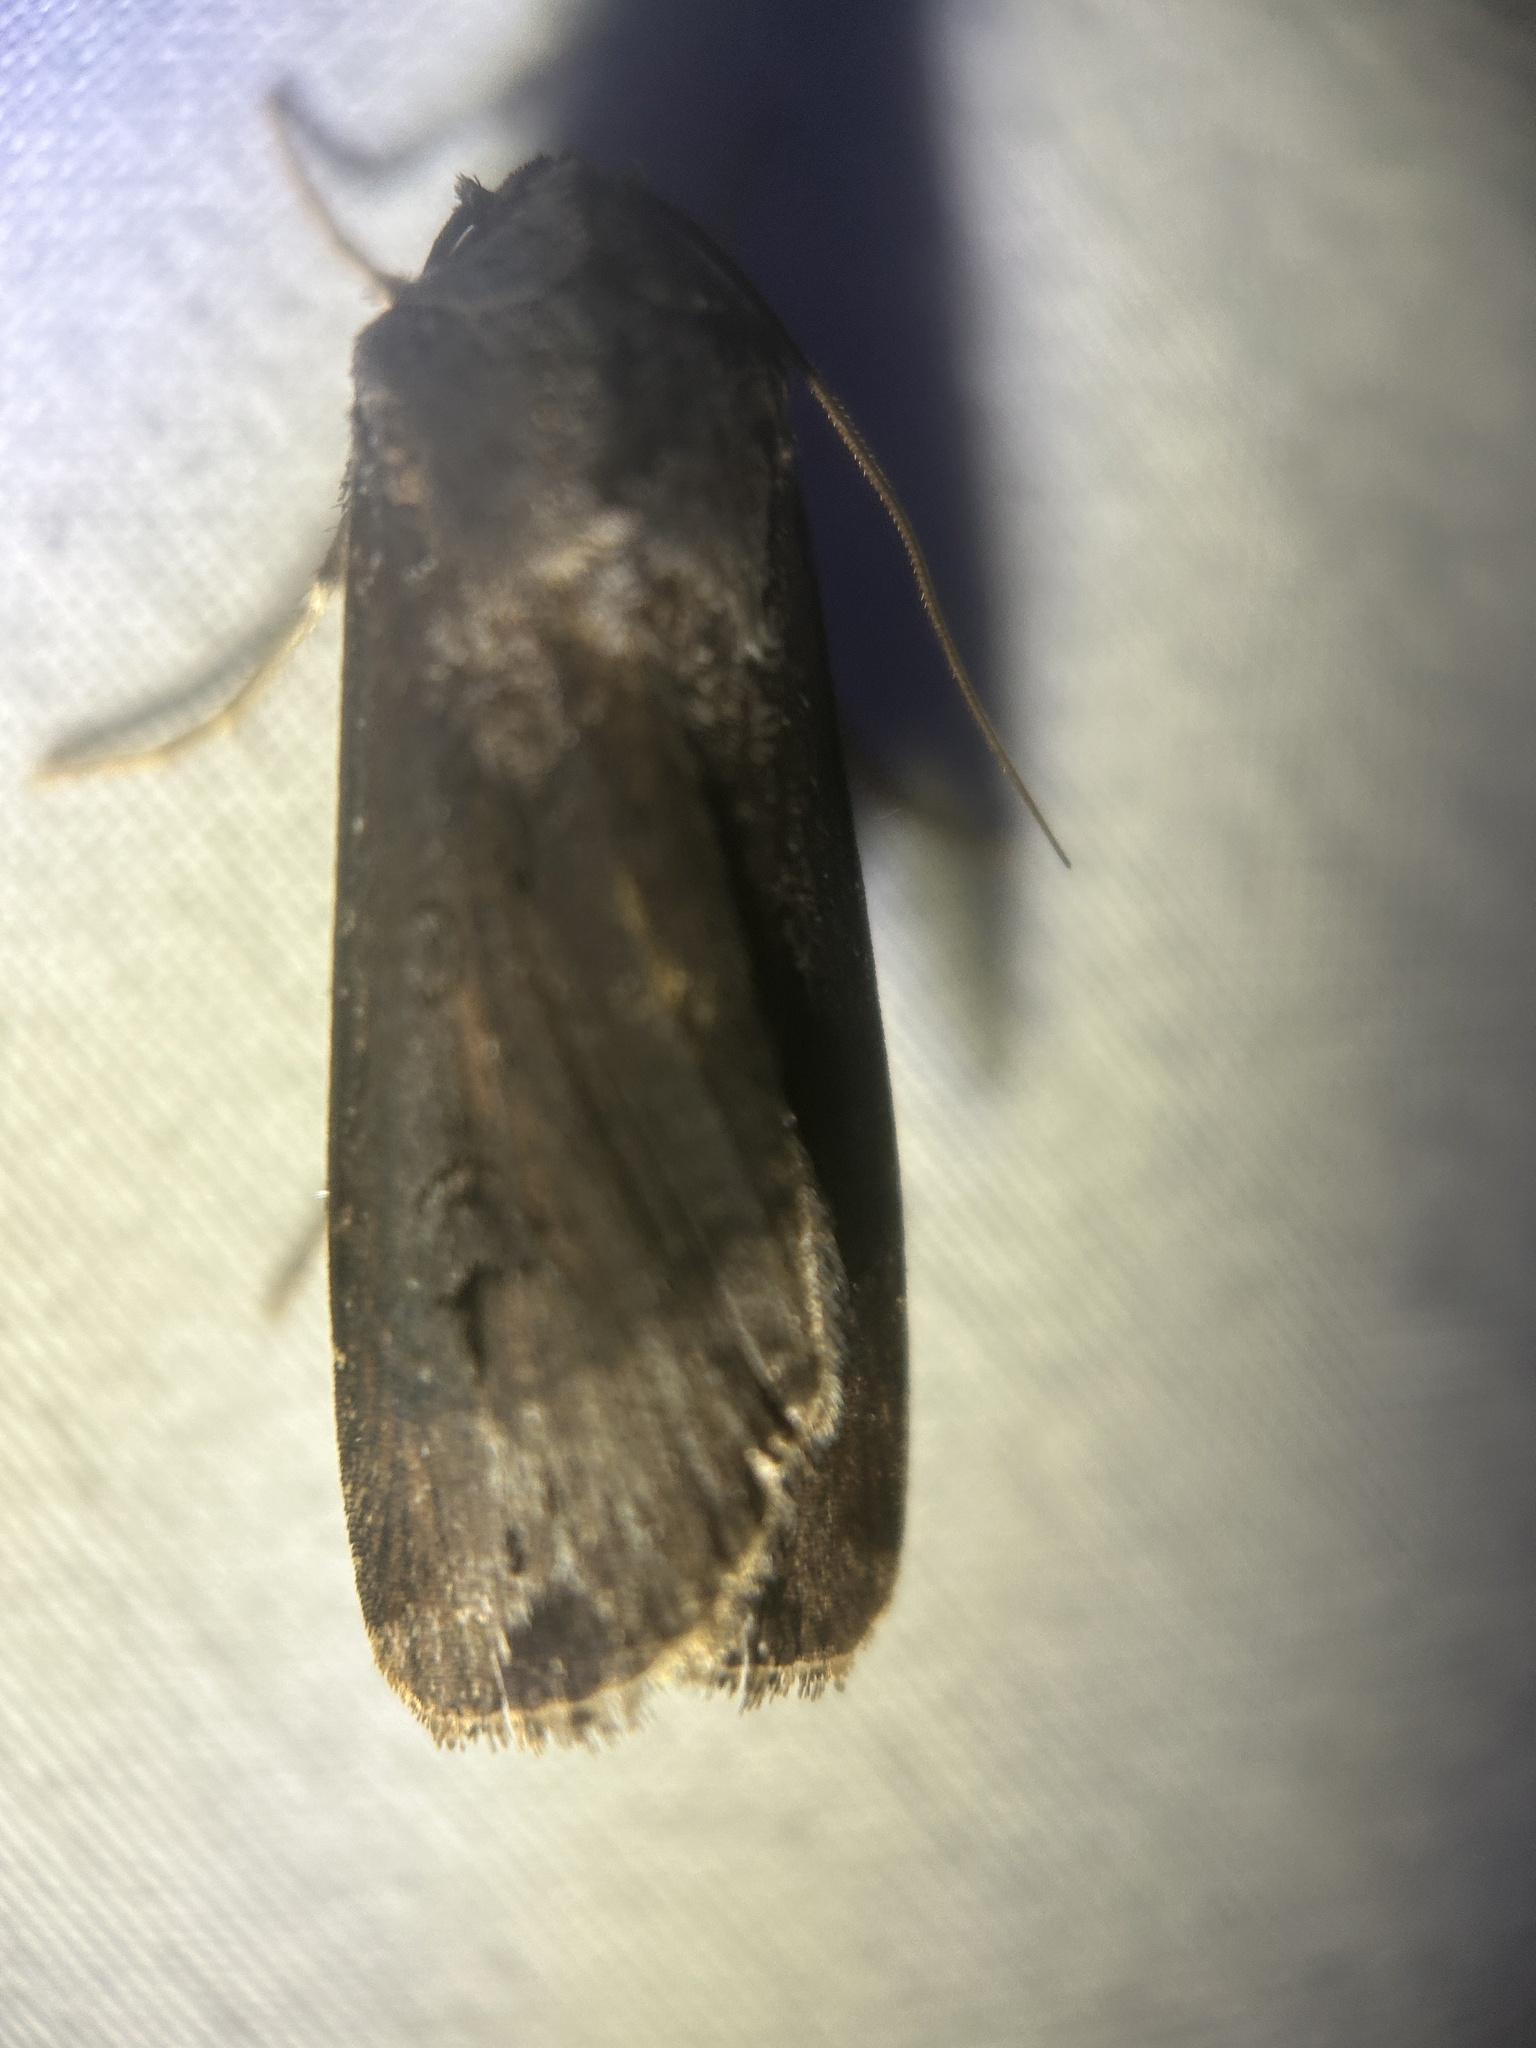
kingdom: Animalia
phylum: Arthropoda
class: Insecta
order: Lepidoptera
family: Noctuidae
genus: Agrotis
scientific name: Agrotis ipsilon
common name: Dark sword-grass
